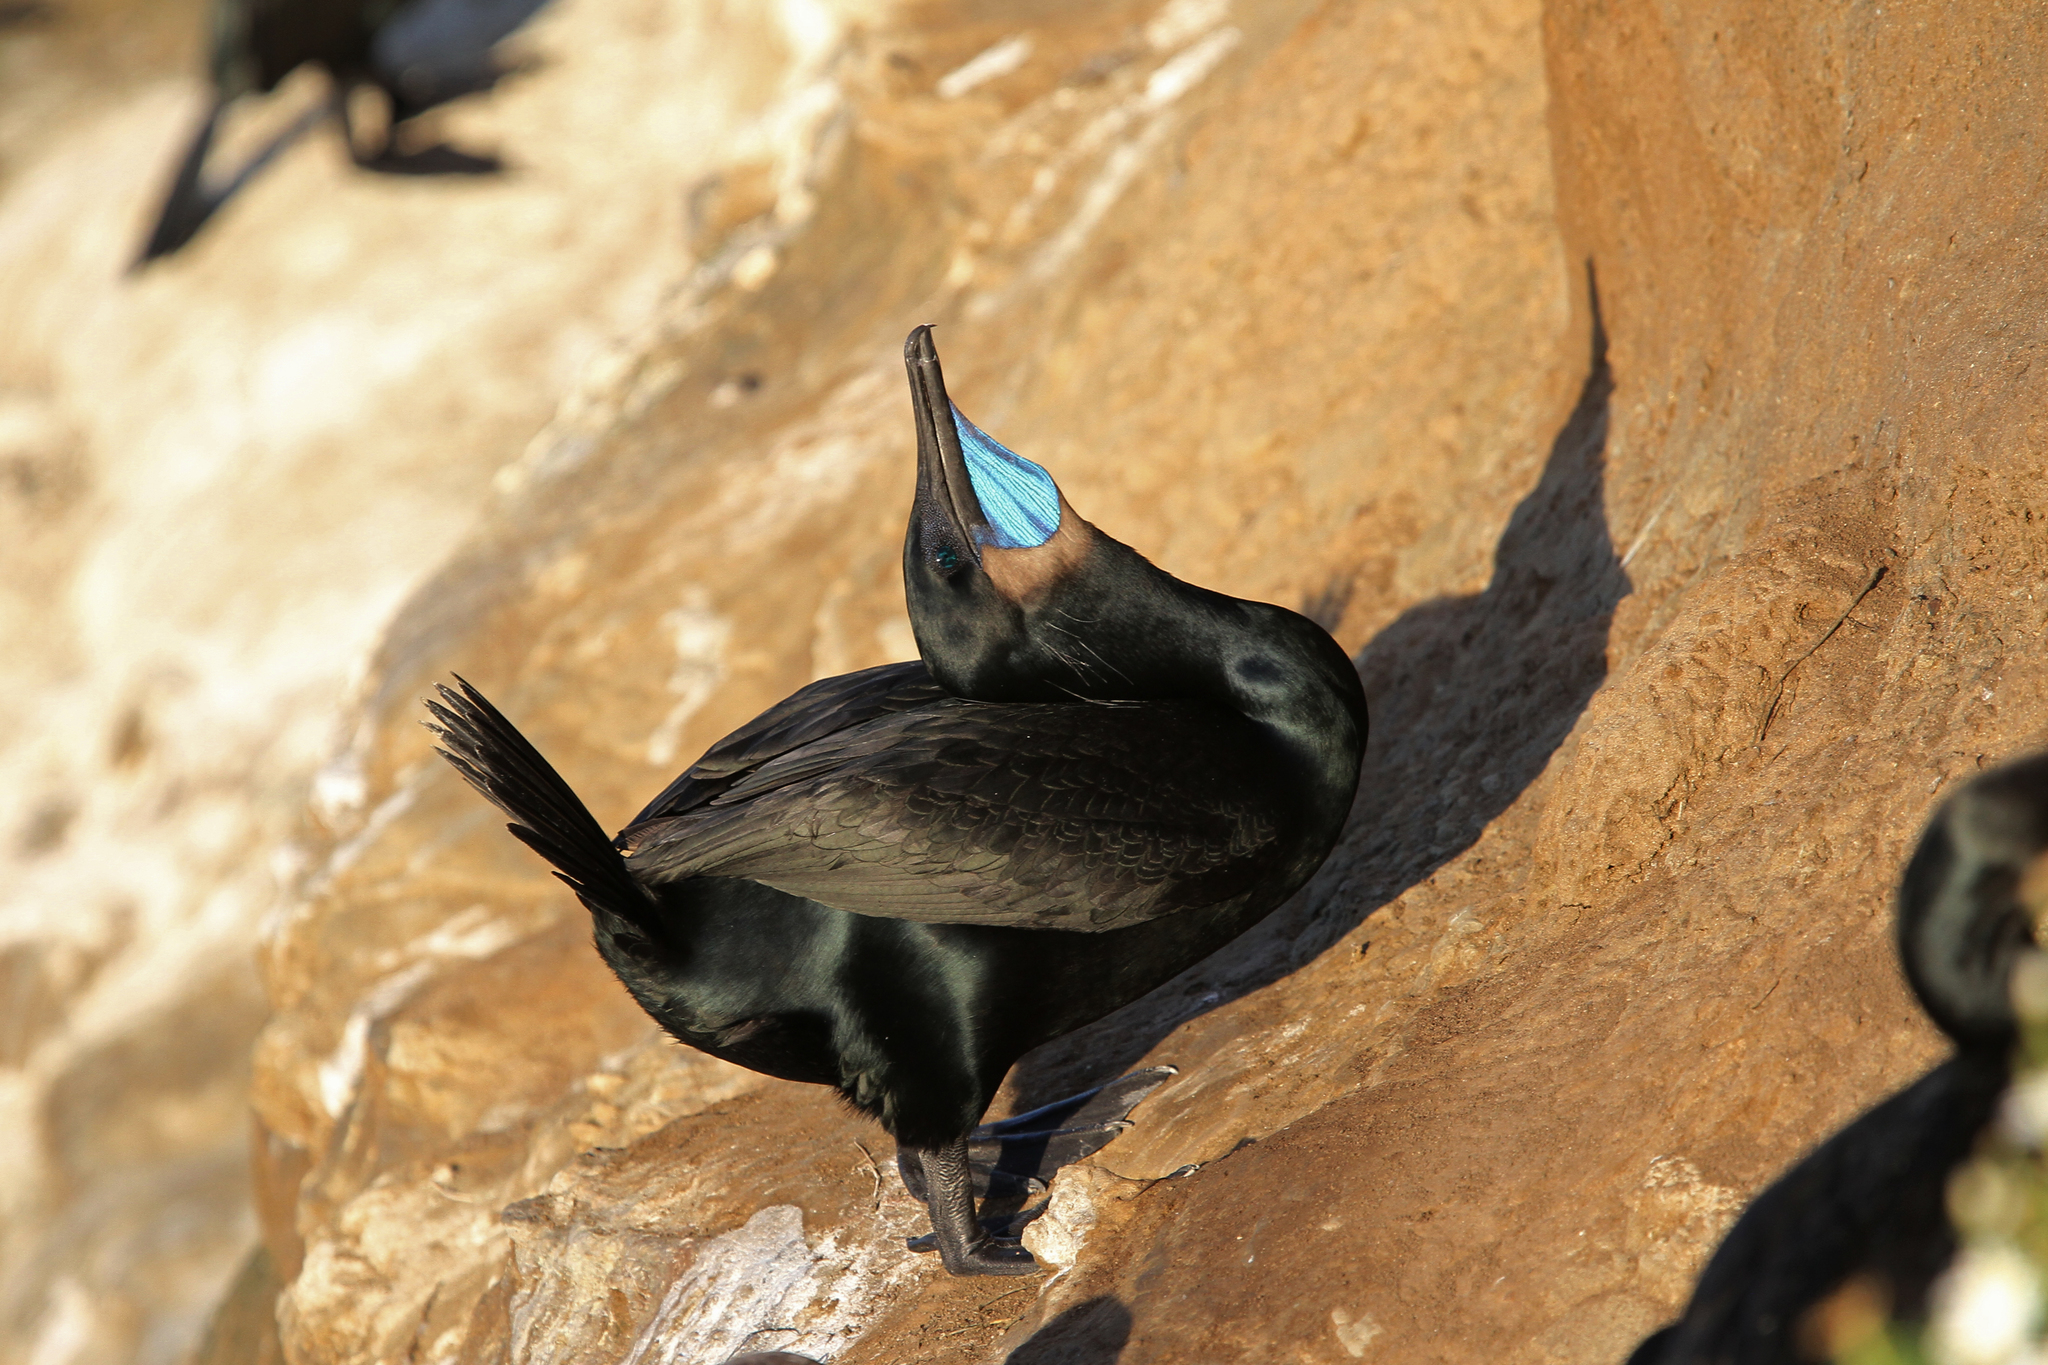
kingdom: Animalia
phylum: Chordata
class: Aves
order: Suliformes
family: Phalacrocoracidae
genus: Urile
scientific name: Urile penicillatus
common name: Brandt's cormorant
